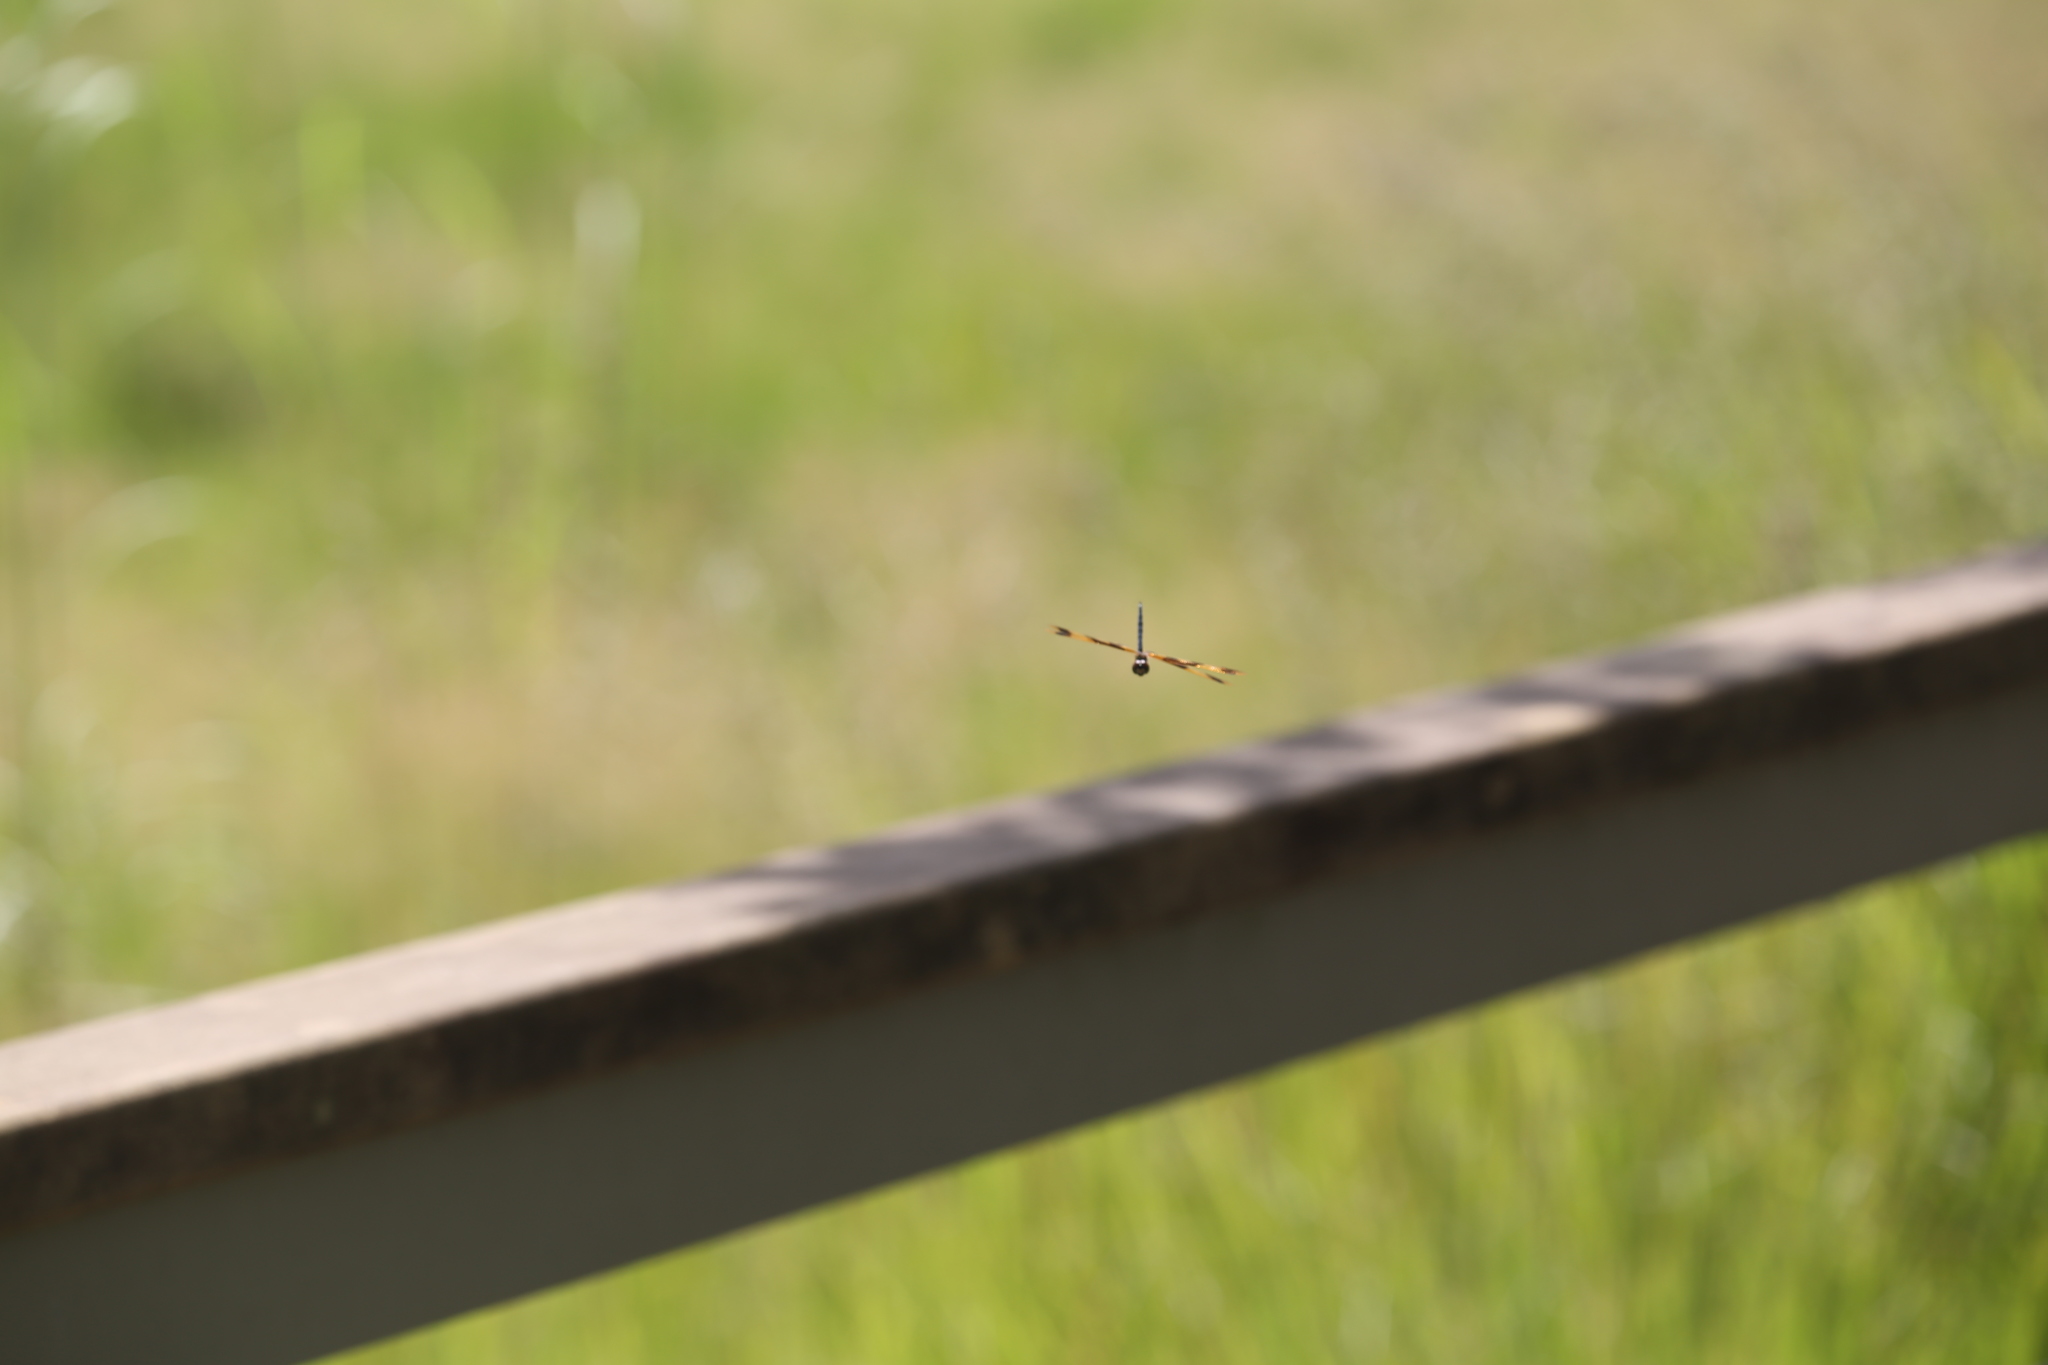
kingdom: Animalia
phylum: Arthropoda
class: Insecta
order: Odonata
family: Libellulidae
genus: Rhyothemis
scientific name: Rhyothemis graphiptera
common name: Graphic flutterer
